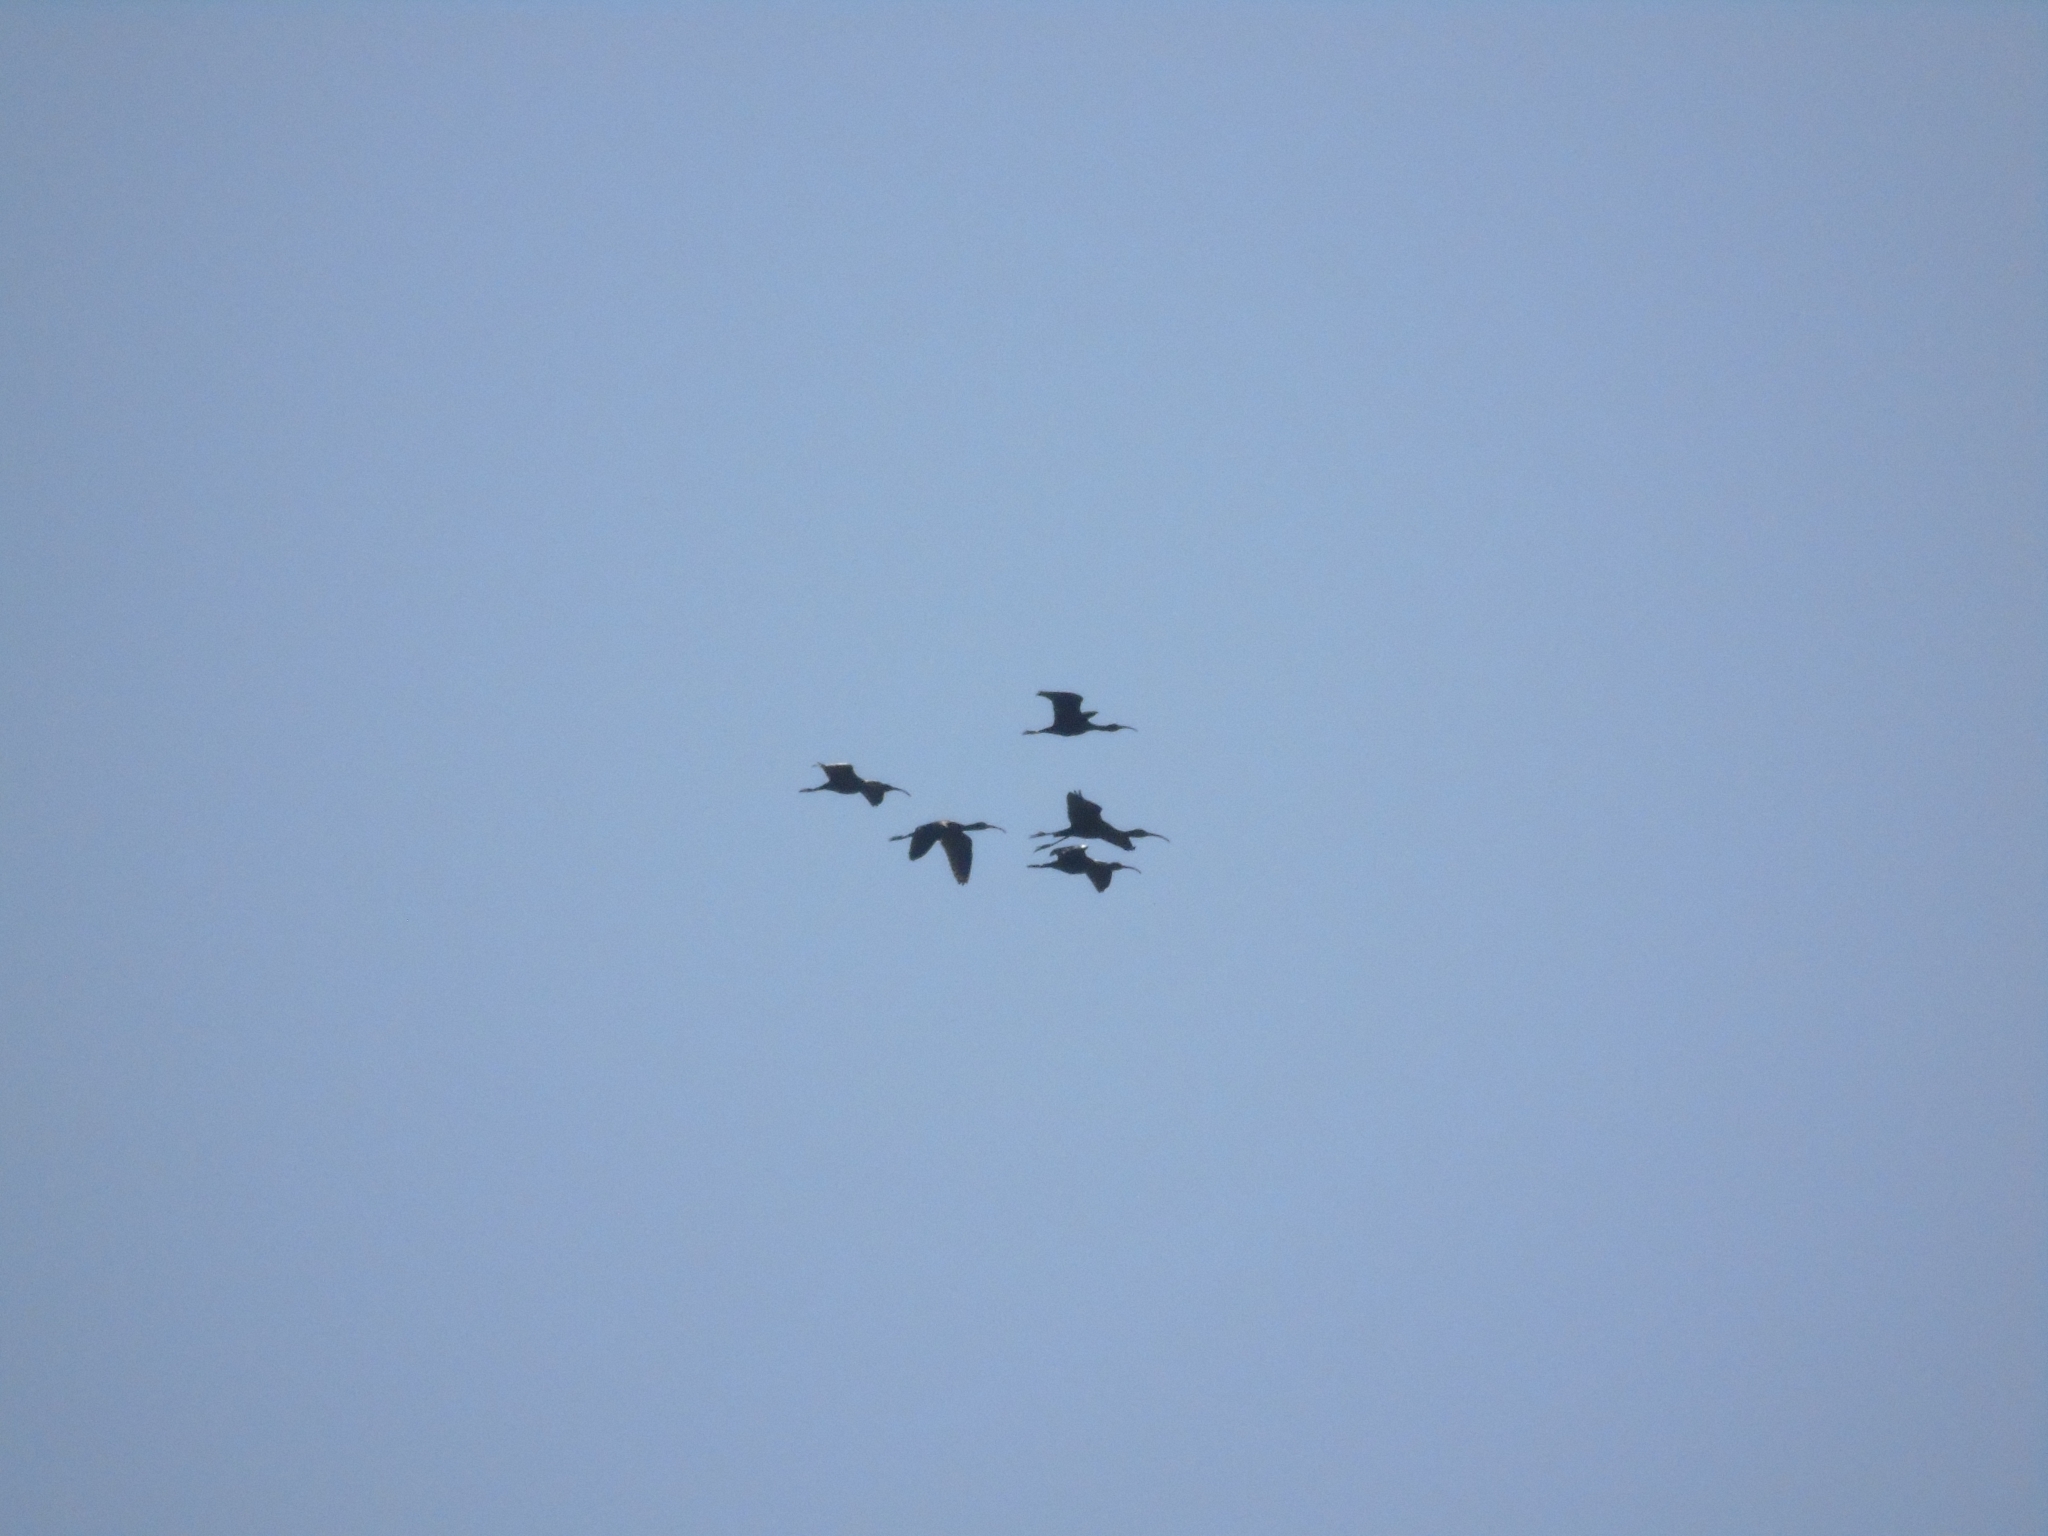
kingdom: Animalia
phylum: Chordata
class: Aves
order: Pelecaniformes
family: Threskiornithidae
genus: Plegadis
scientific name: Plegadis chihi
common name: White-faced ibis
